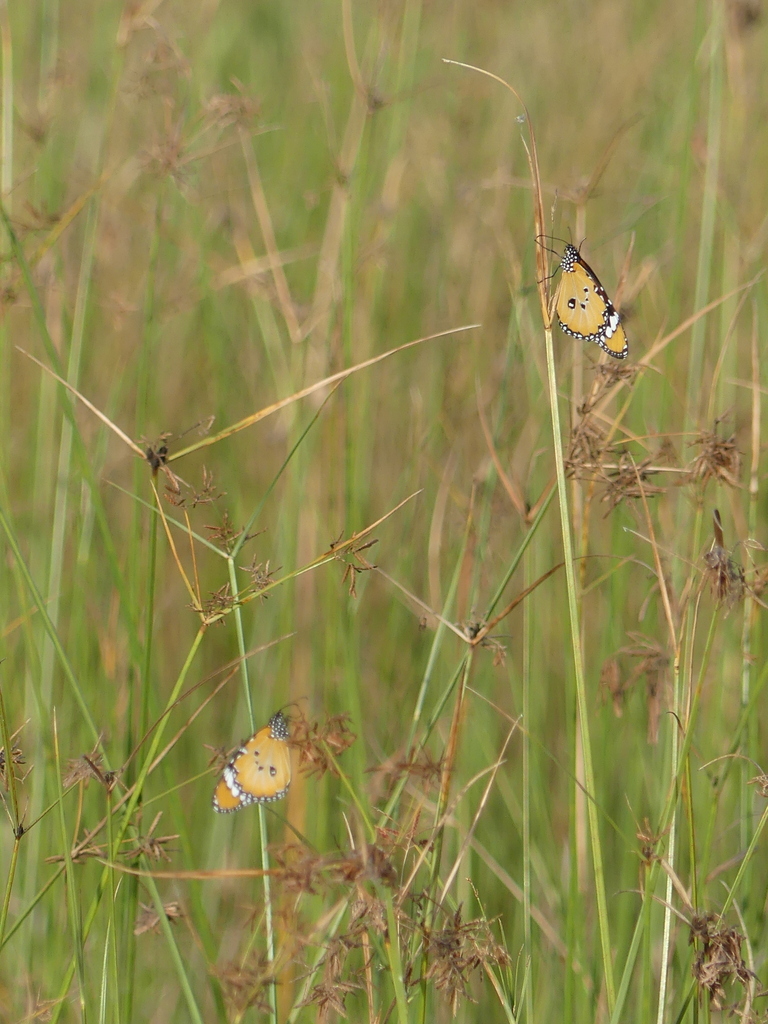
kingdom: Animalia
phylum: Arthropoda
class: Insecta
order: Lepidoptera
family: Nymphalidae
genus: Danaus
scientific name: Danaus chrysippus
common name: Plain tiger
